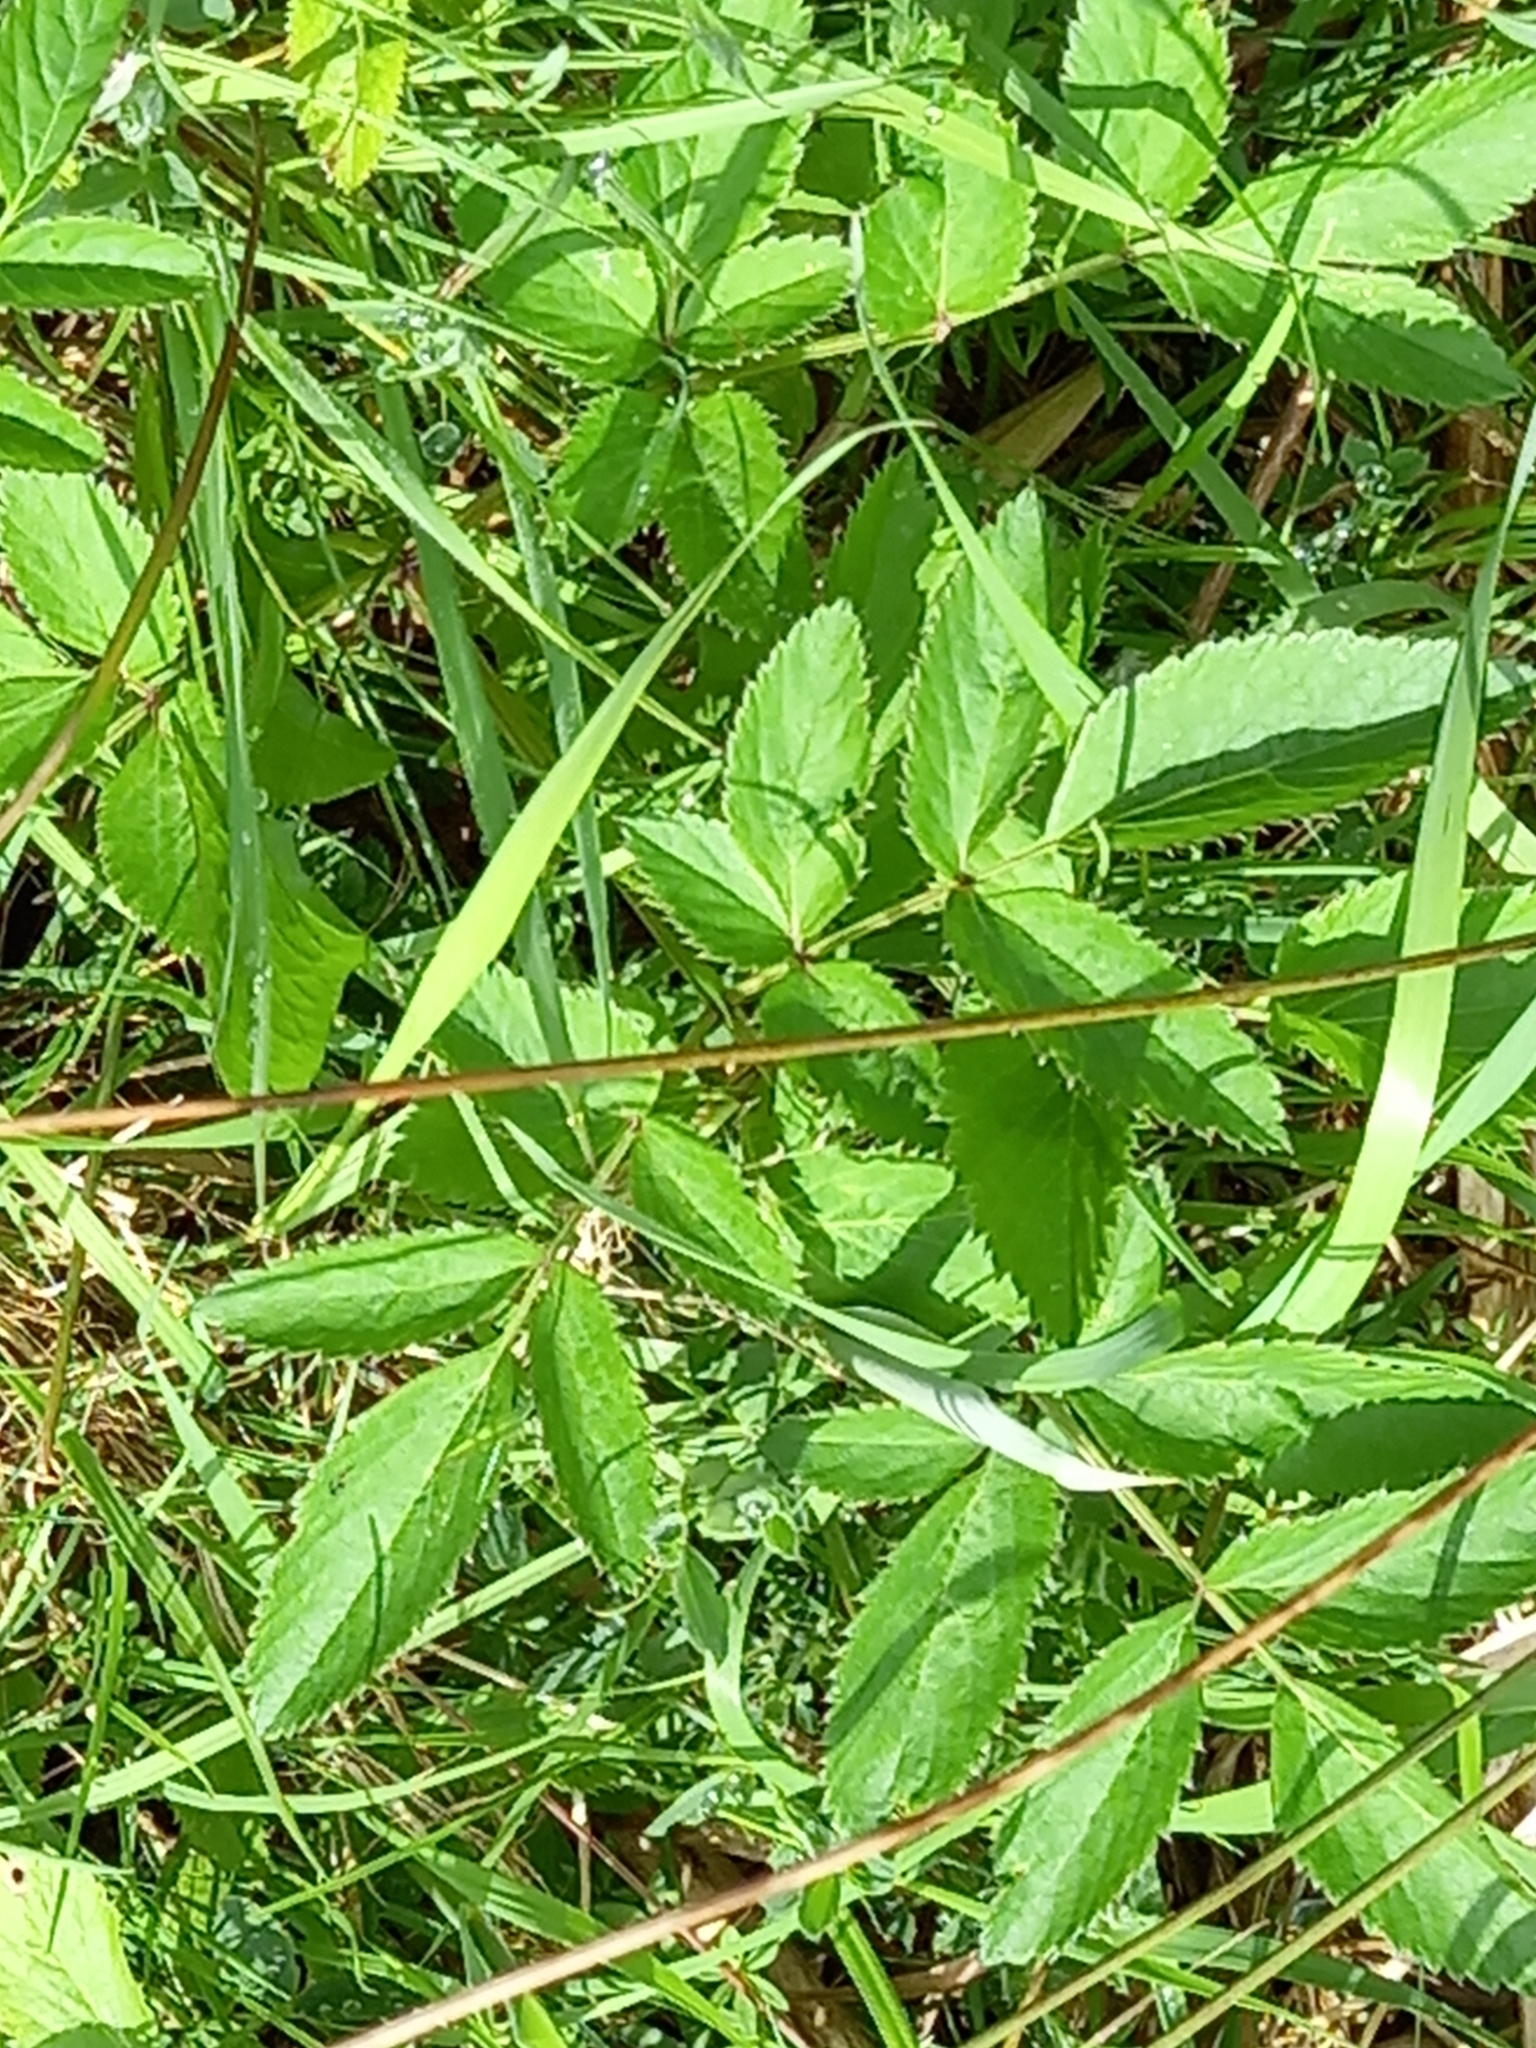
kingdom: Plantae
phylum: Tracheophyta
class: Magnoliopsida
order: Apiales
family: Apiaceae
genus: Aegopodium
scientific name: Aegopodium podagraria
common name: Ground-elder
